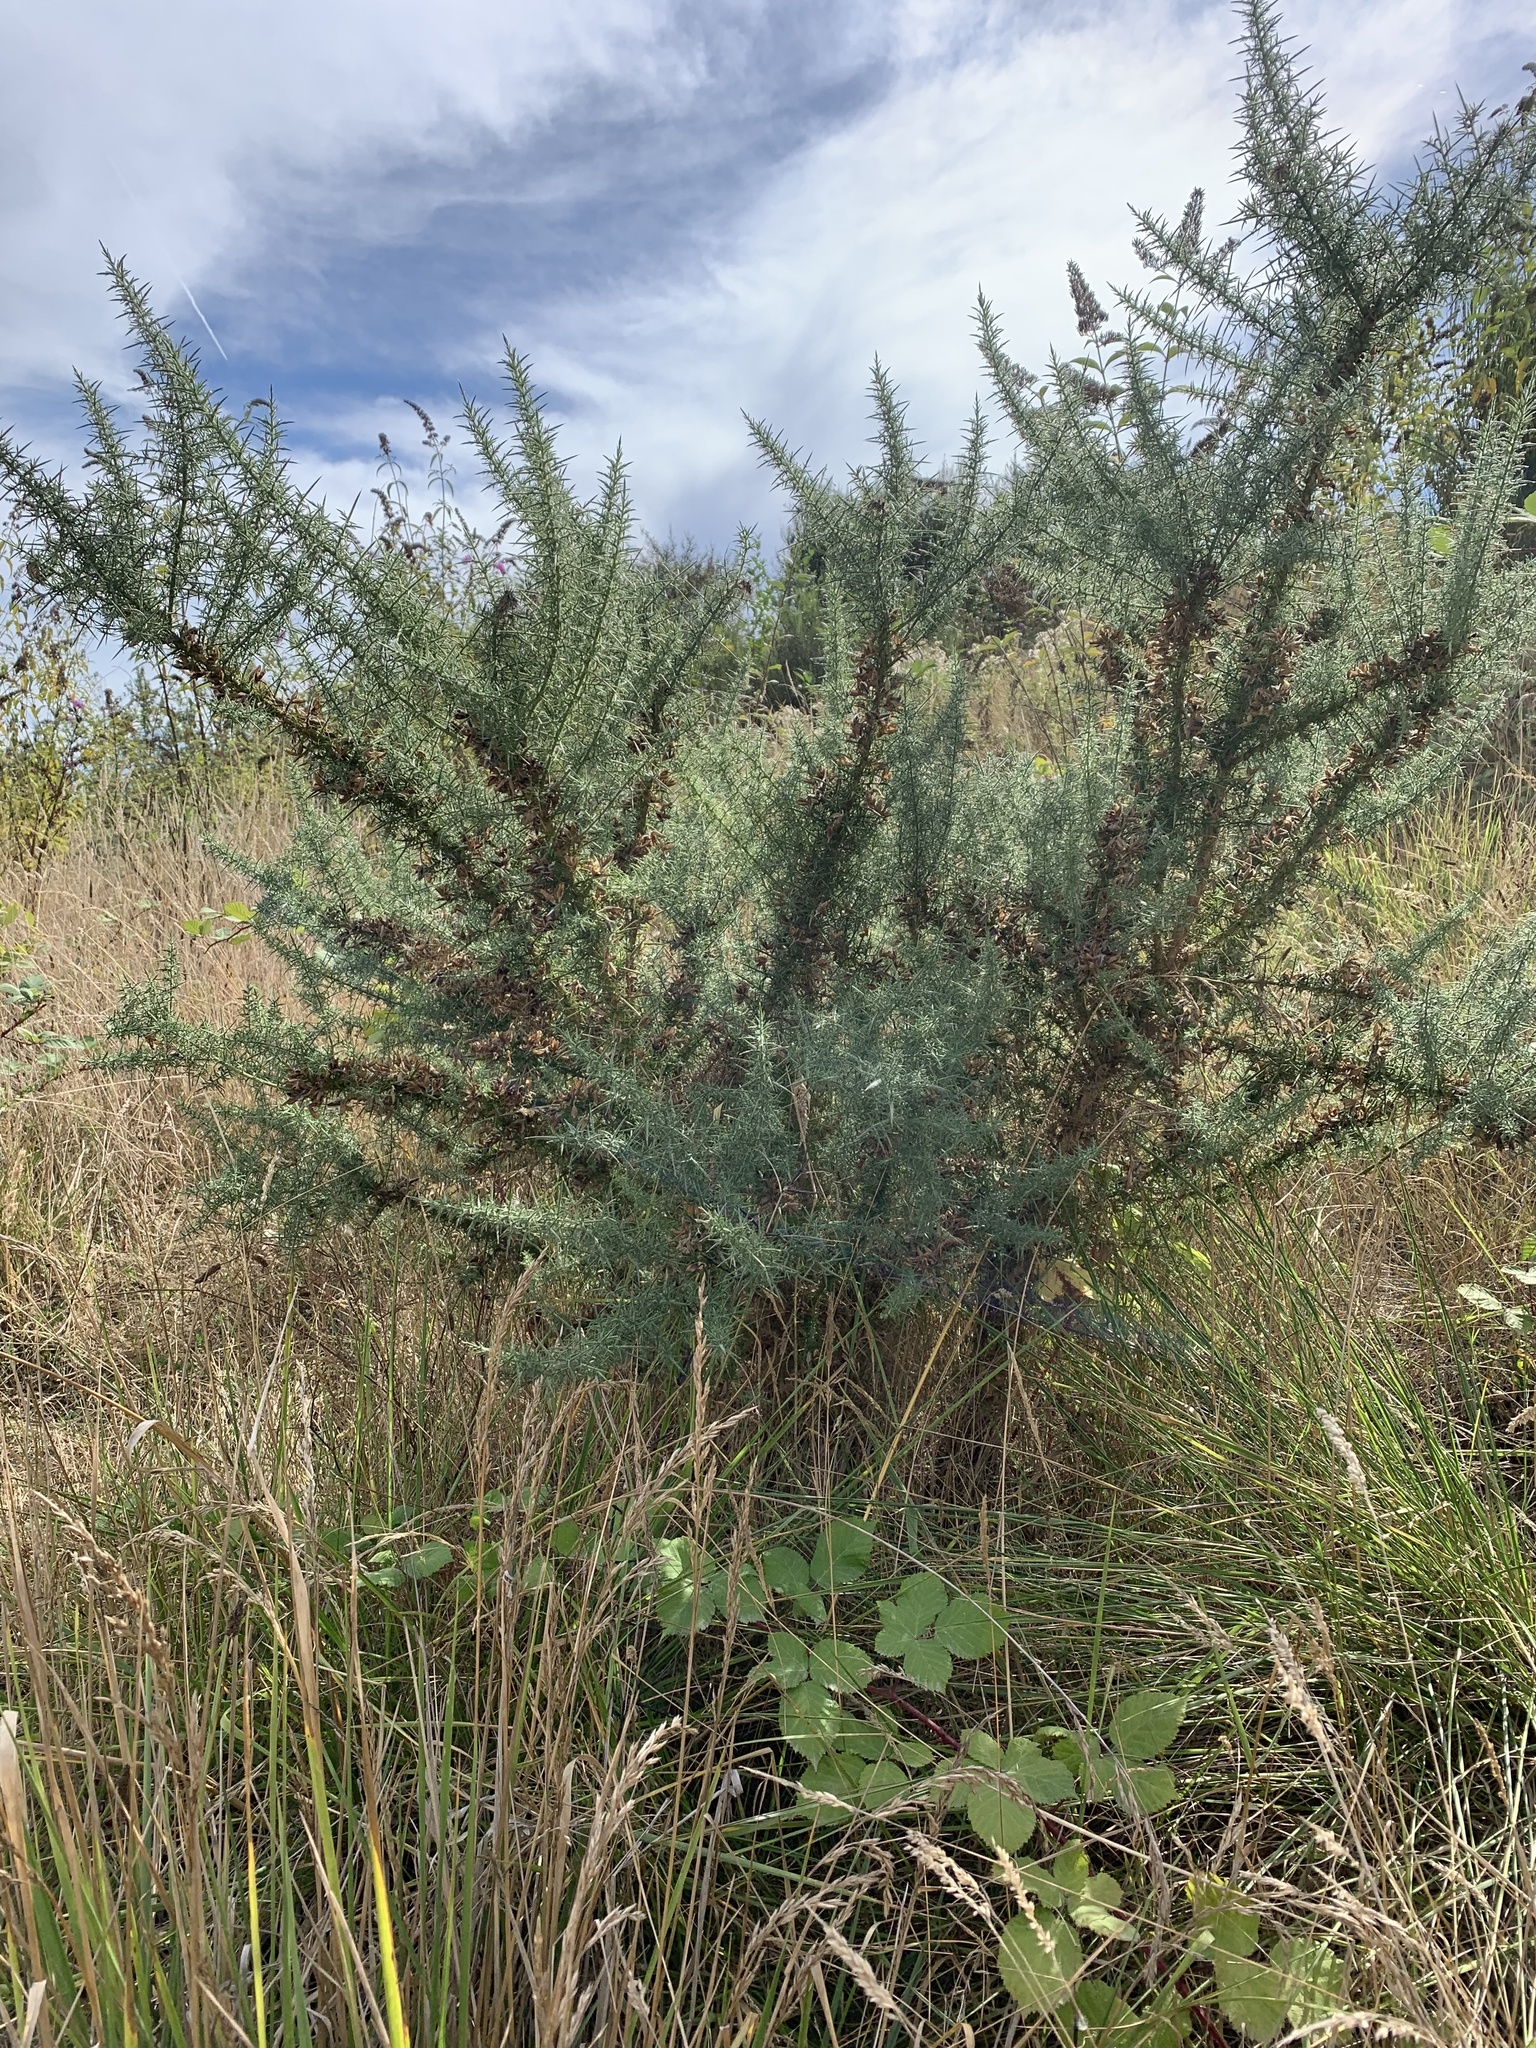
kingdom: Plantae
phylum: Tracheophyta
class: Magnoliopsida
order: Fabales
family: Fabaceae
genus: Ulex
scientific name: Ulex europaeus
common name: Common gorse
